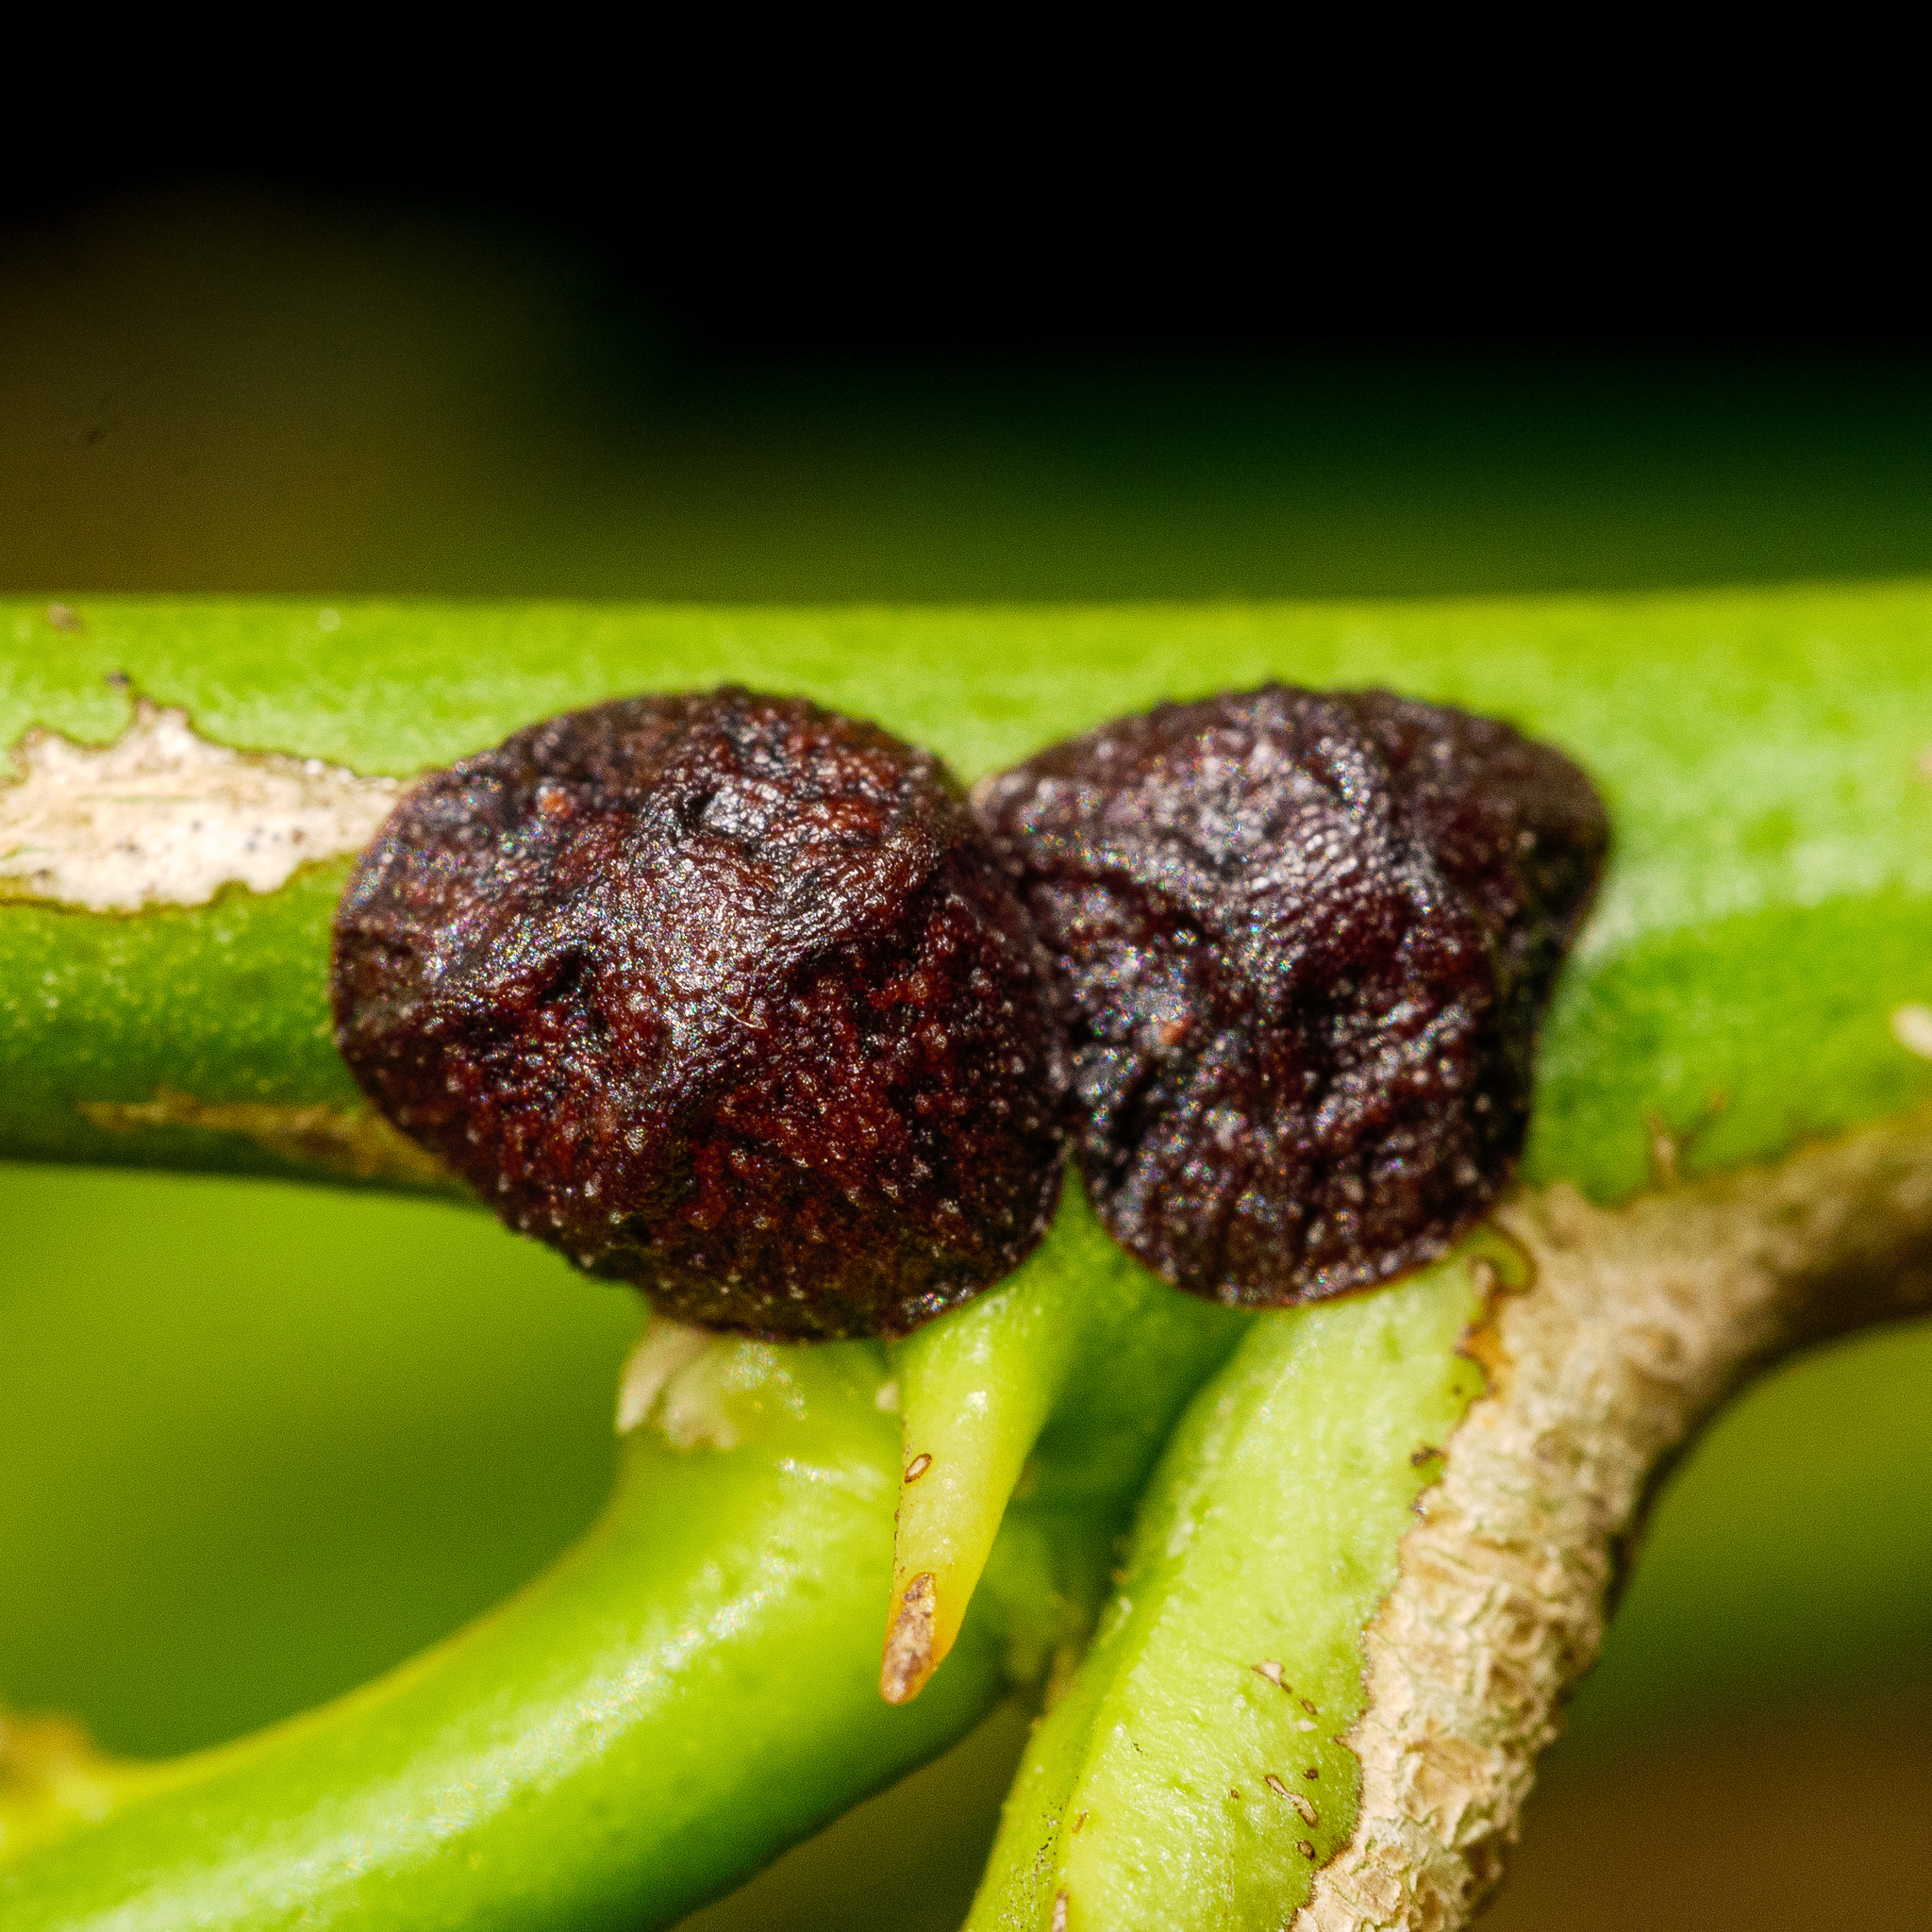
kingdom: Animalia
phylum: Arthropoda
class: Insecta
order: Hemiptera
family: Coccidae
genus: Saissetia
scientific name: Saissetia oleae
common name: Black scale
